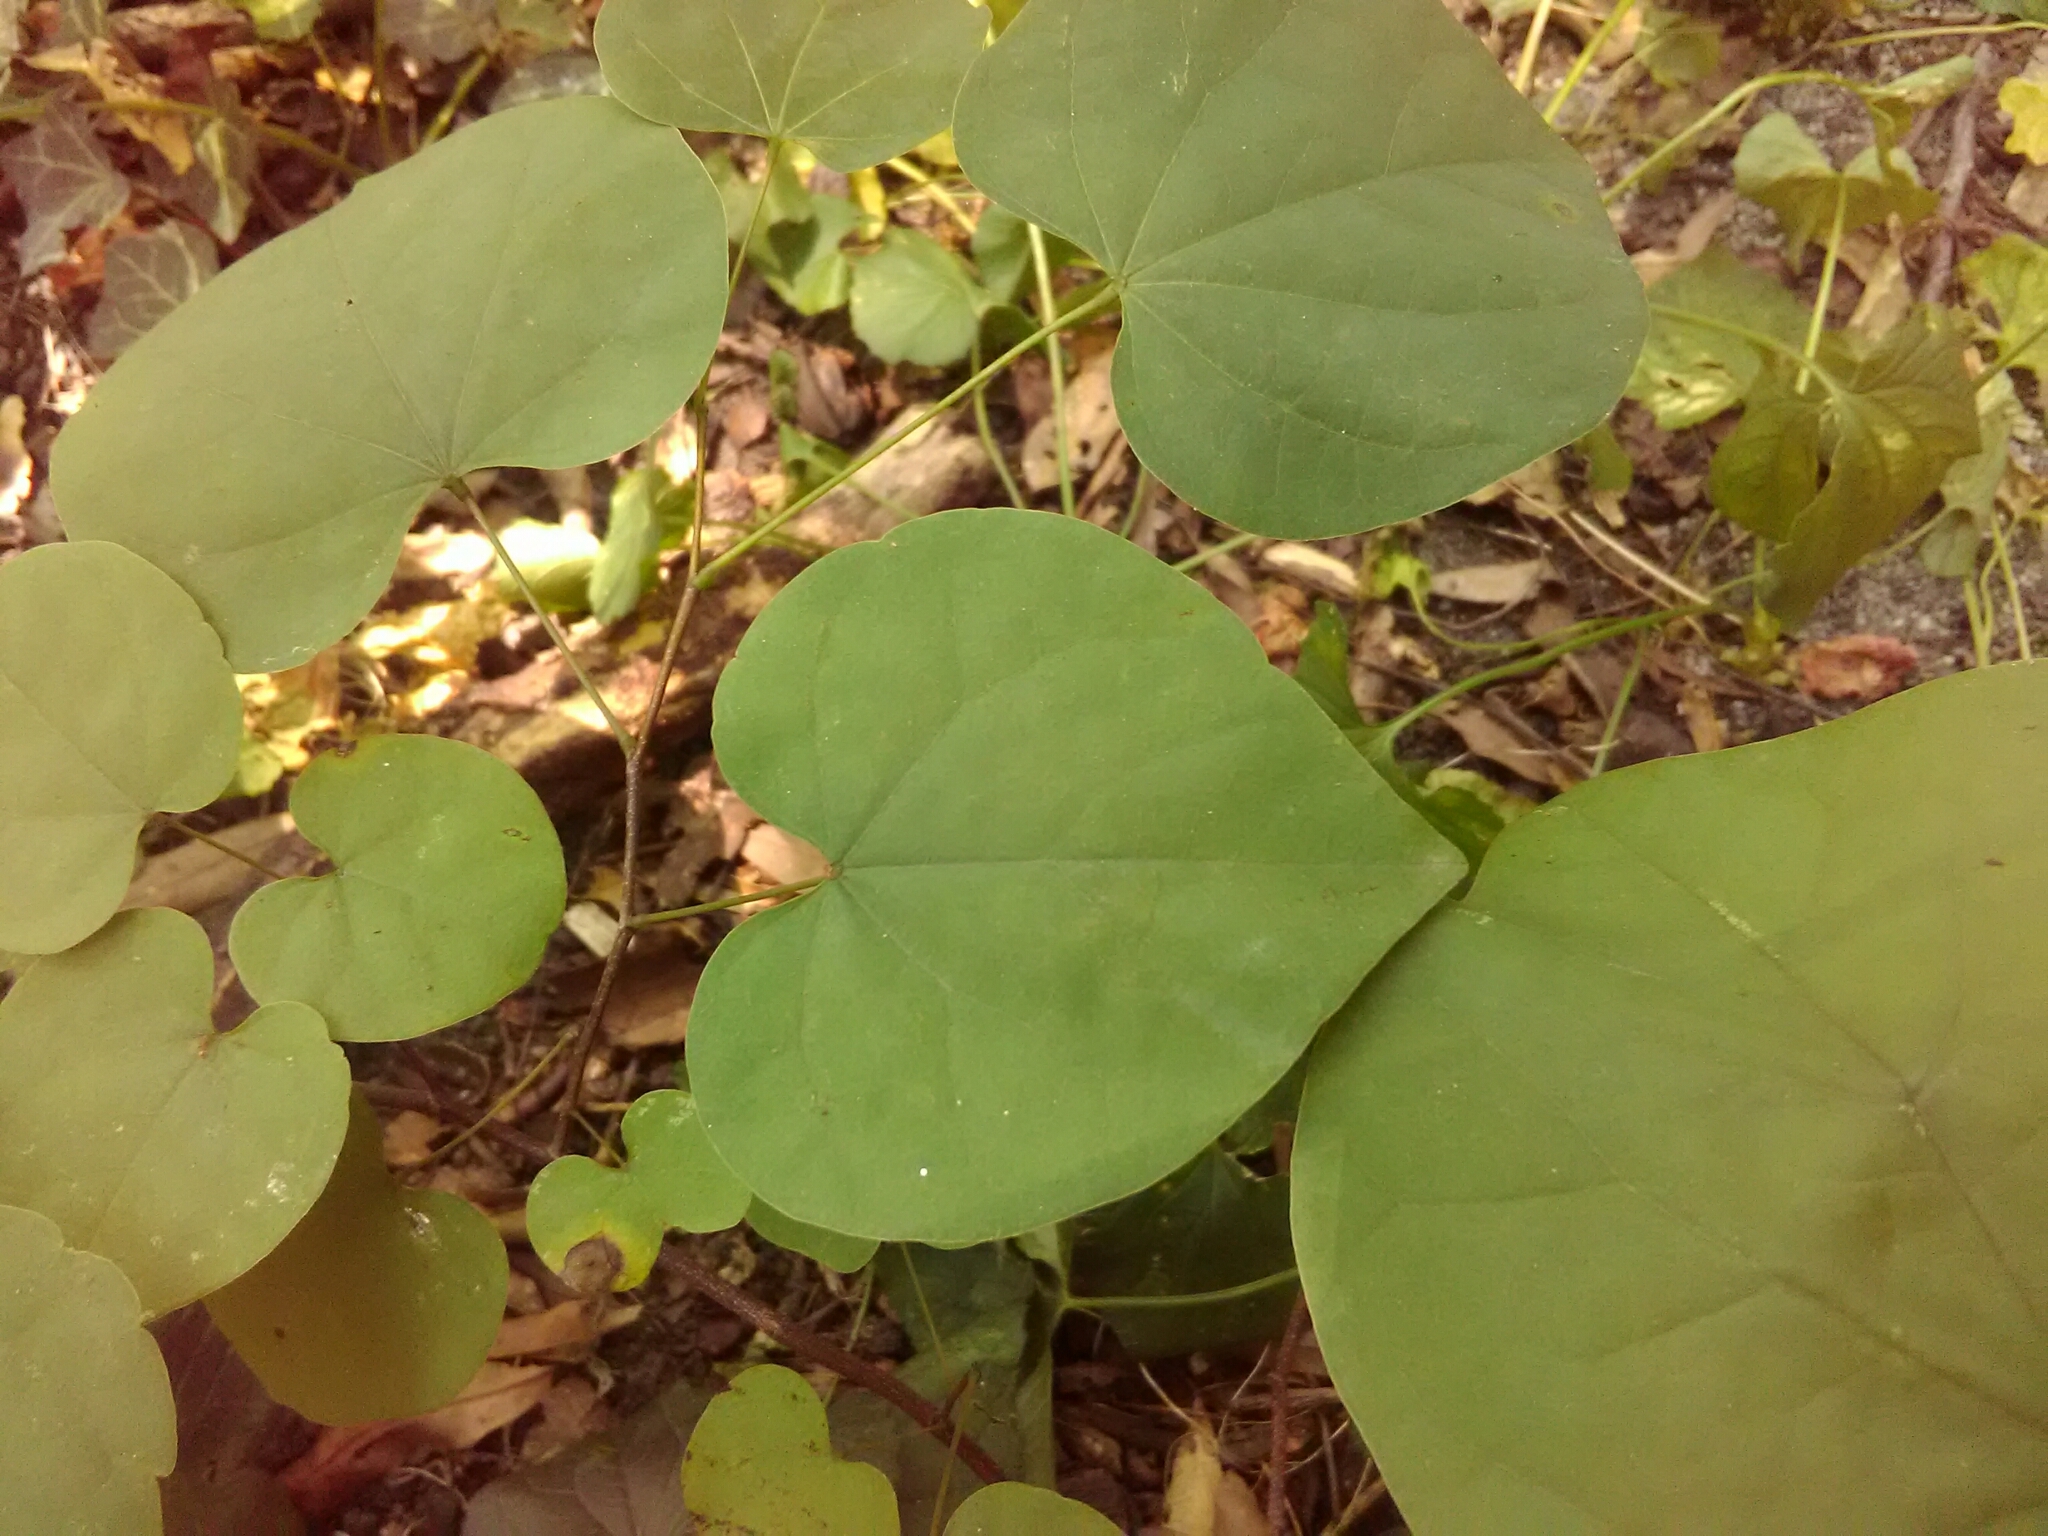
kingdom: Plantae
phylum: Tracheophyta
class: Magnoliopsida
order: Fabales
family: Fabaceae
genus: Cercis
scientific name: Cercis canadensis
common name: Eastern redbud
